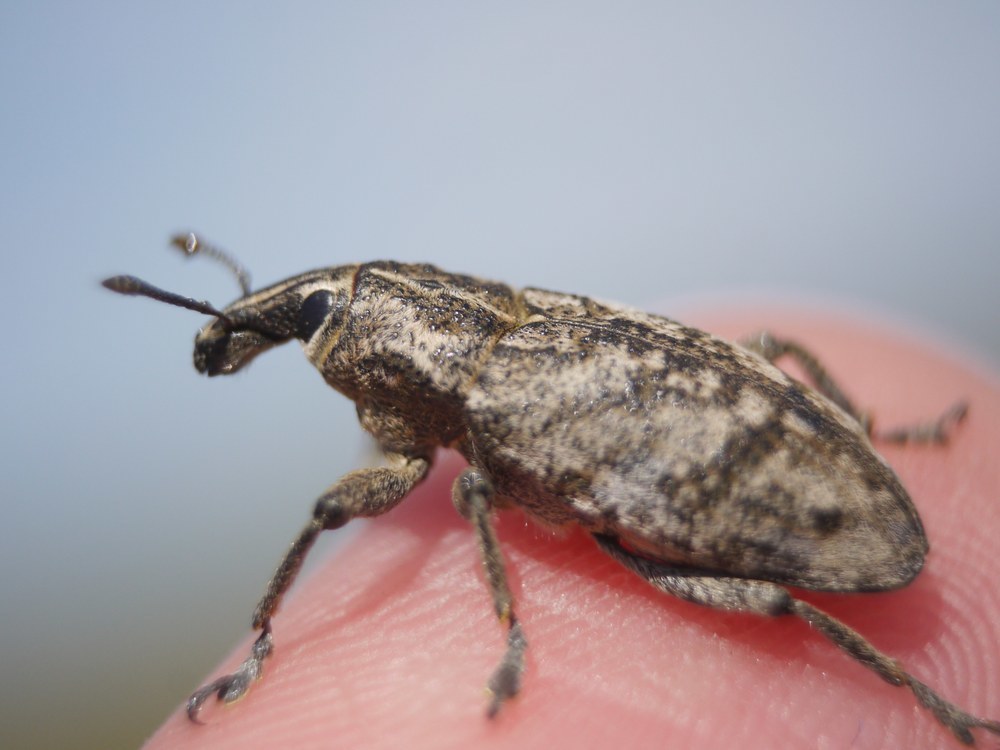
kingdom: Animalia
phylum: Arthropoda
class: Insecta
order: Coleoptera
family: Curculionidae
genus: Cleonis
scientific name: Cleonis pigra
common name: Large thistle weevil
